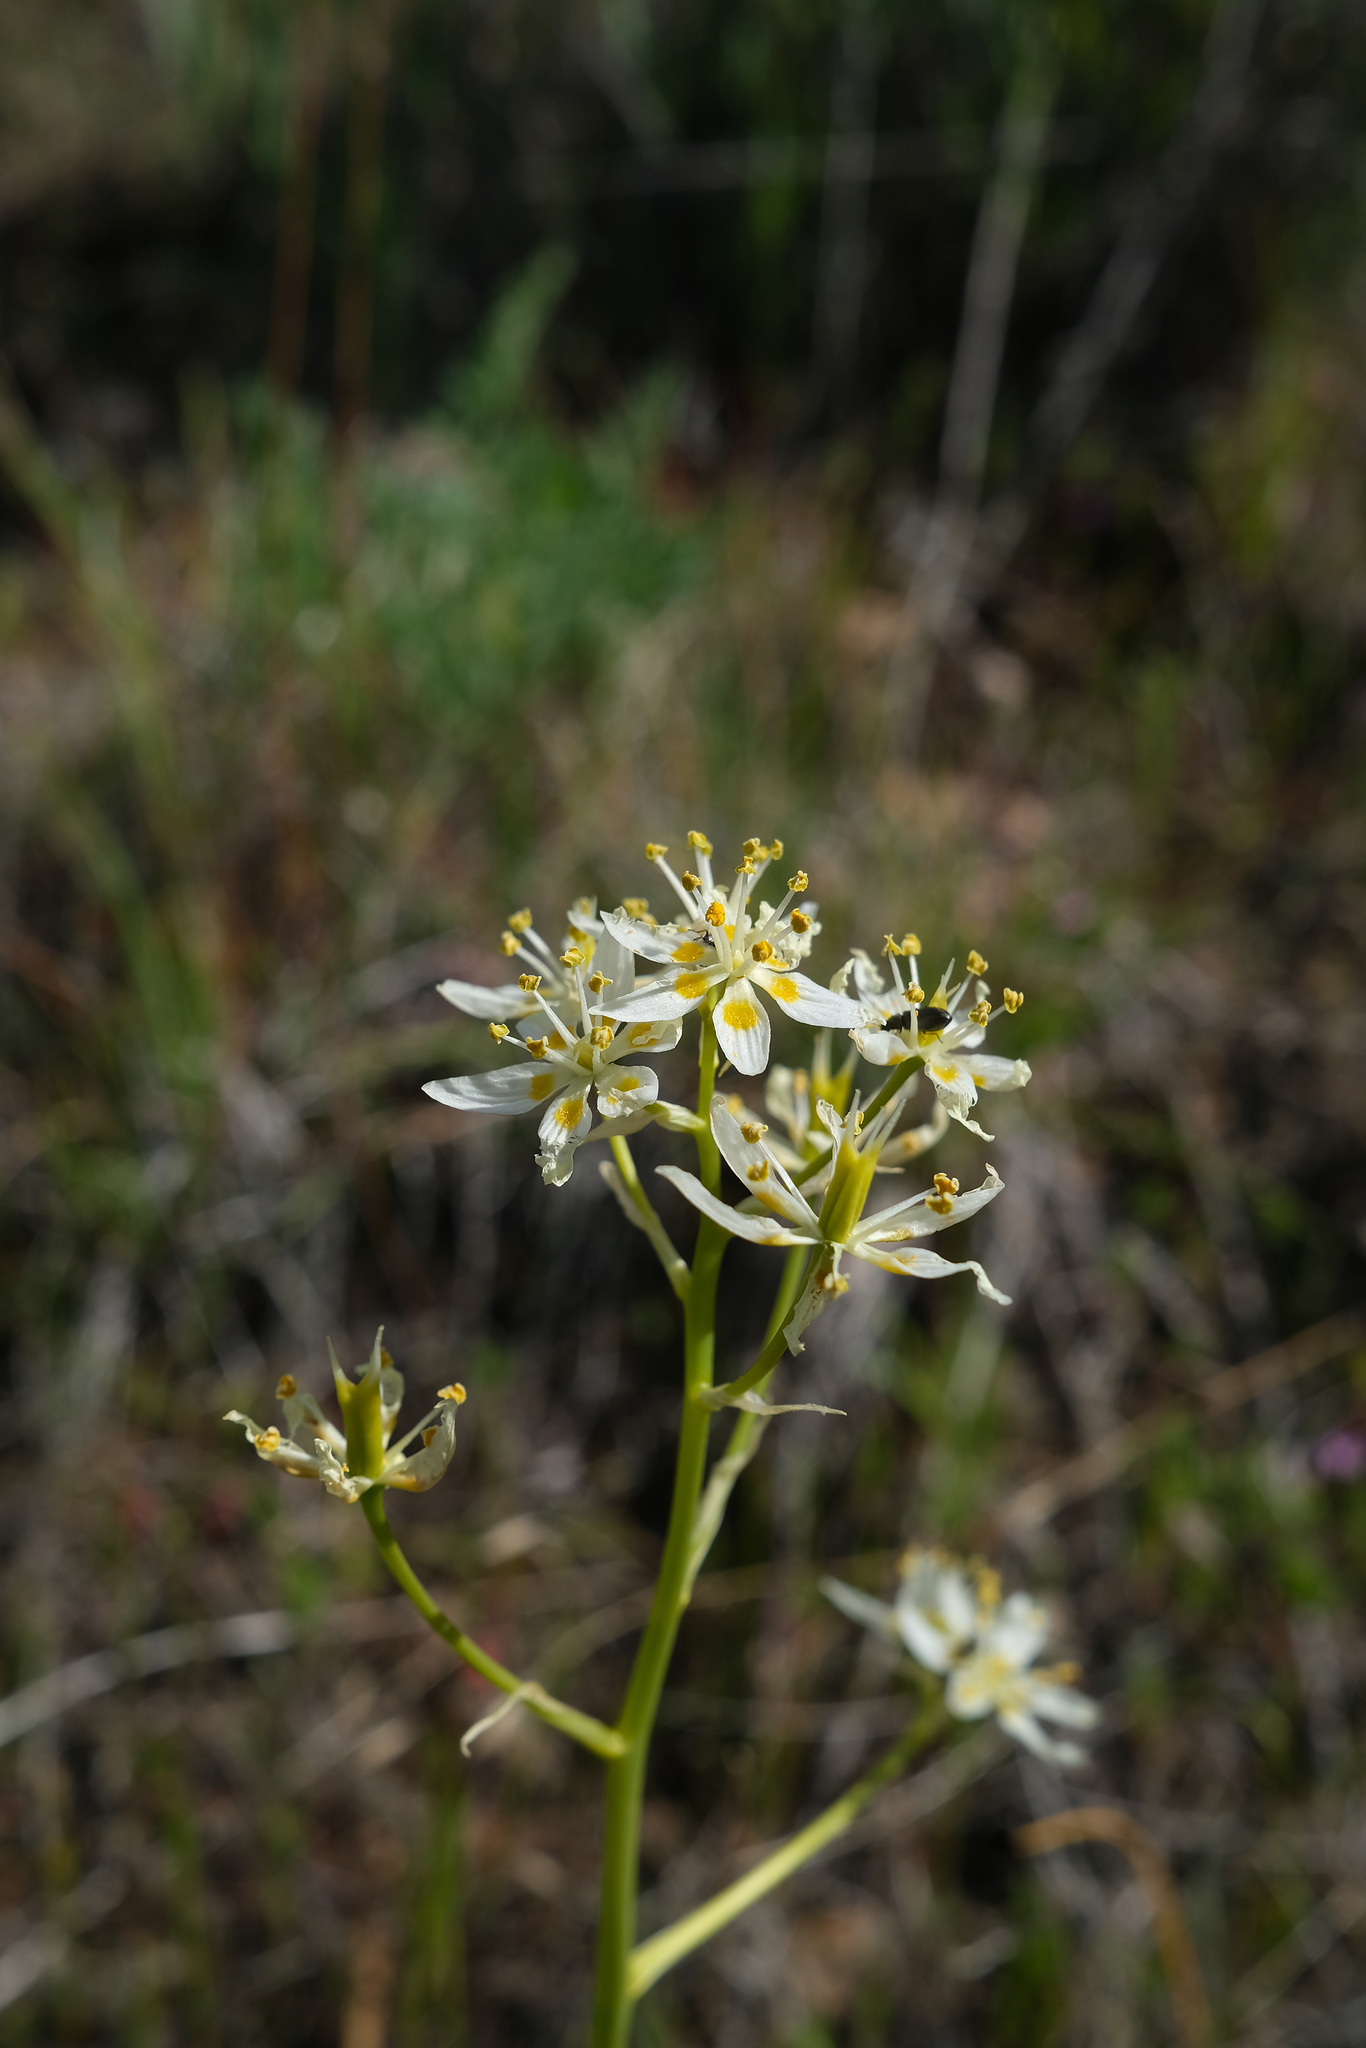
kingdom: Plantae
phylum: Tracheophyta
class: Liliopsida
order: Liliales
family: Melanthiaceae
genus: Toxicoscordion
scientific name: Toxicoscordion fremontii
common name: Fremont's death camas
